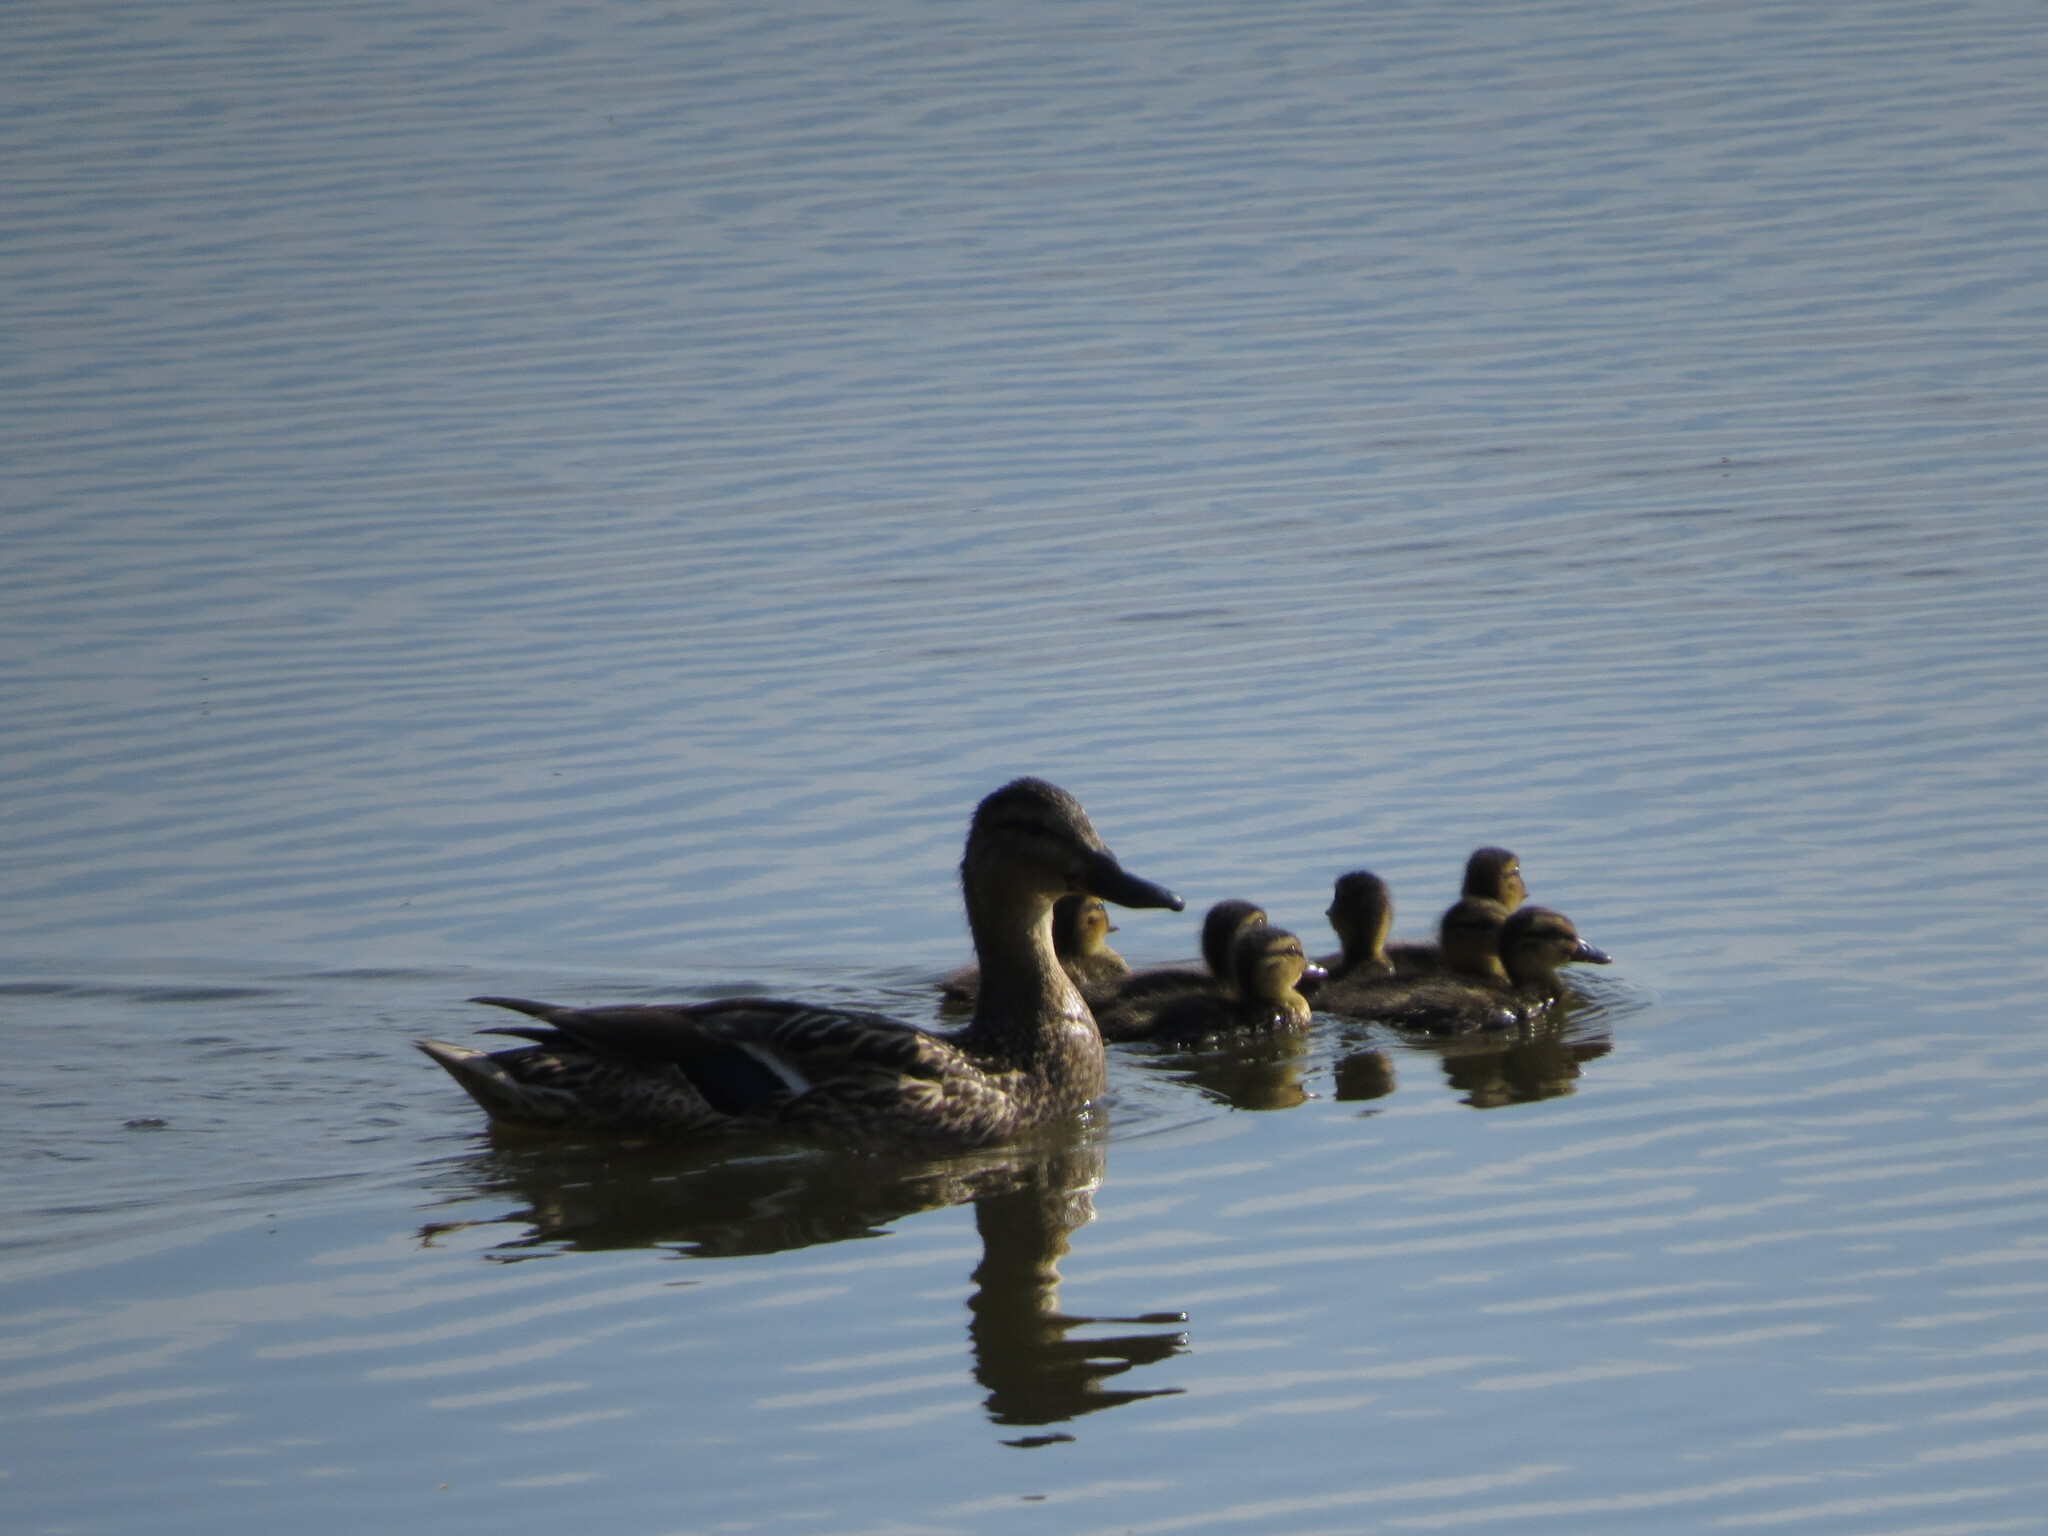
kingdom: Animalia
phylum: Chordata
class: Aves
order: Anseriformes
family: Anatidae
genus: Anas
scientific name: Anas platyrhynchos
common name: Mallard
